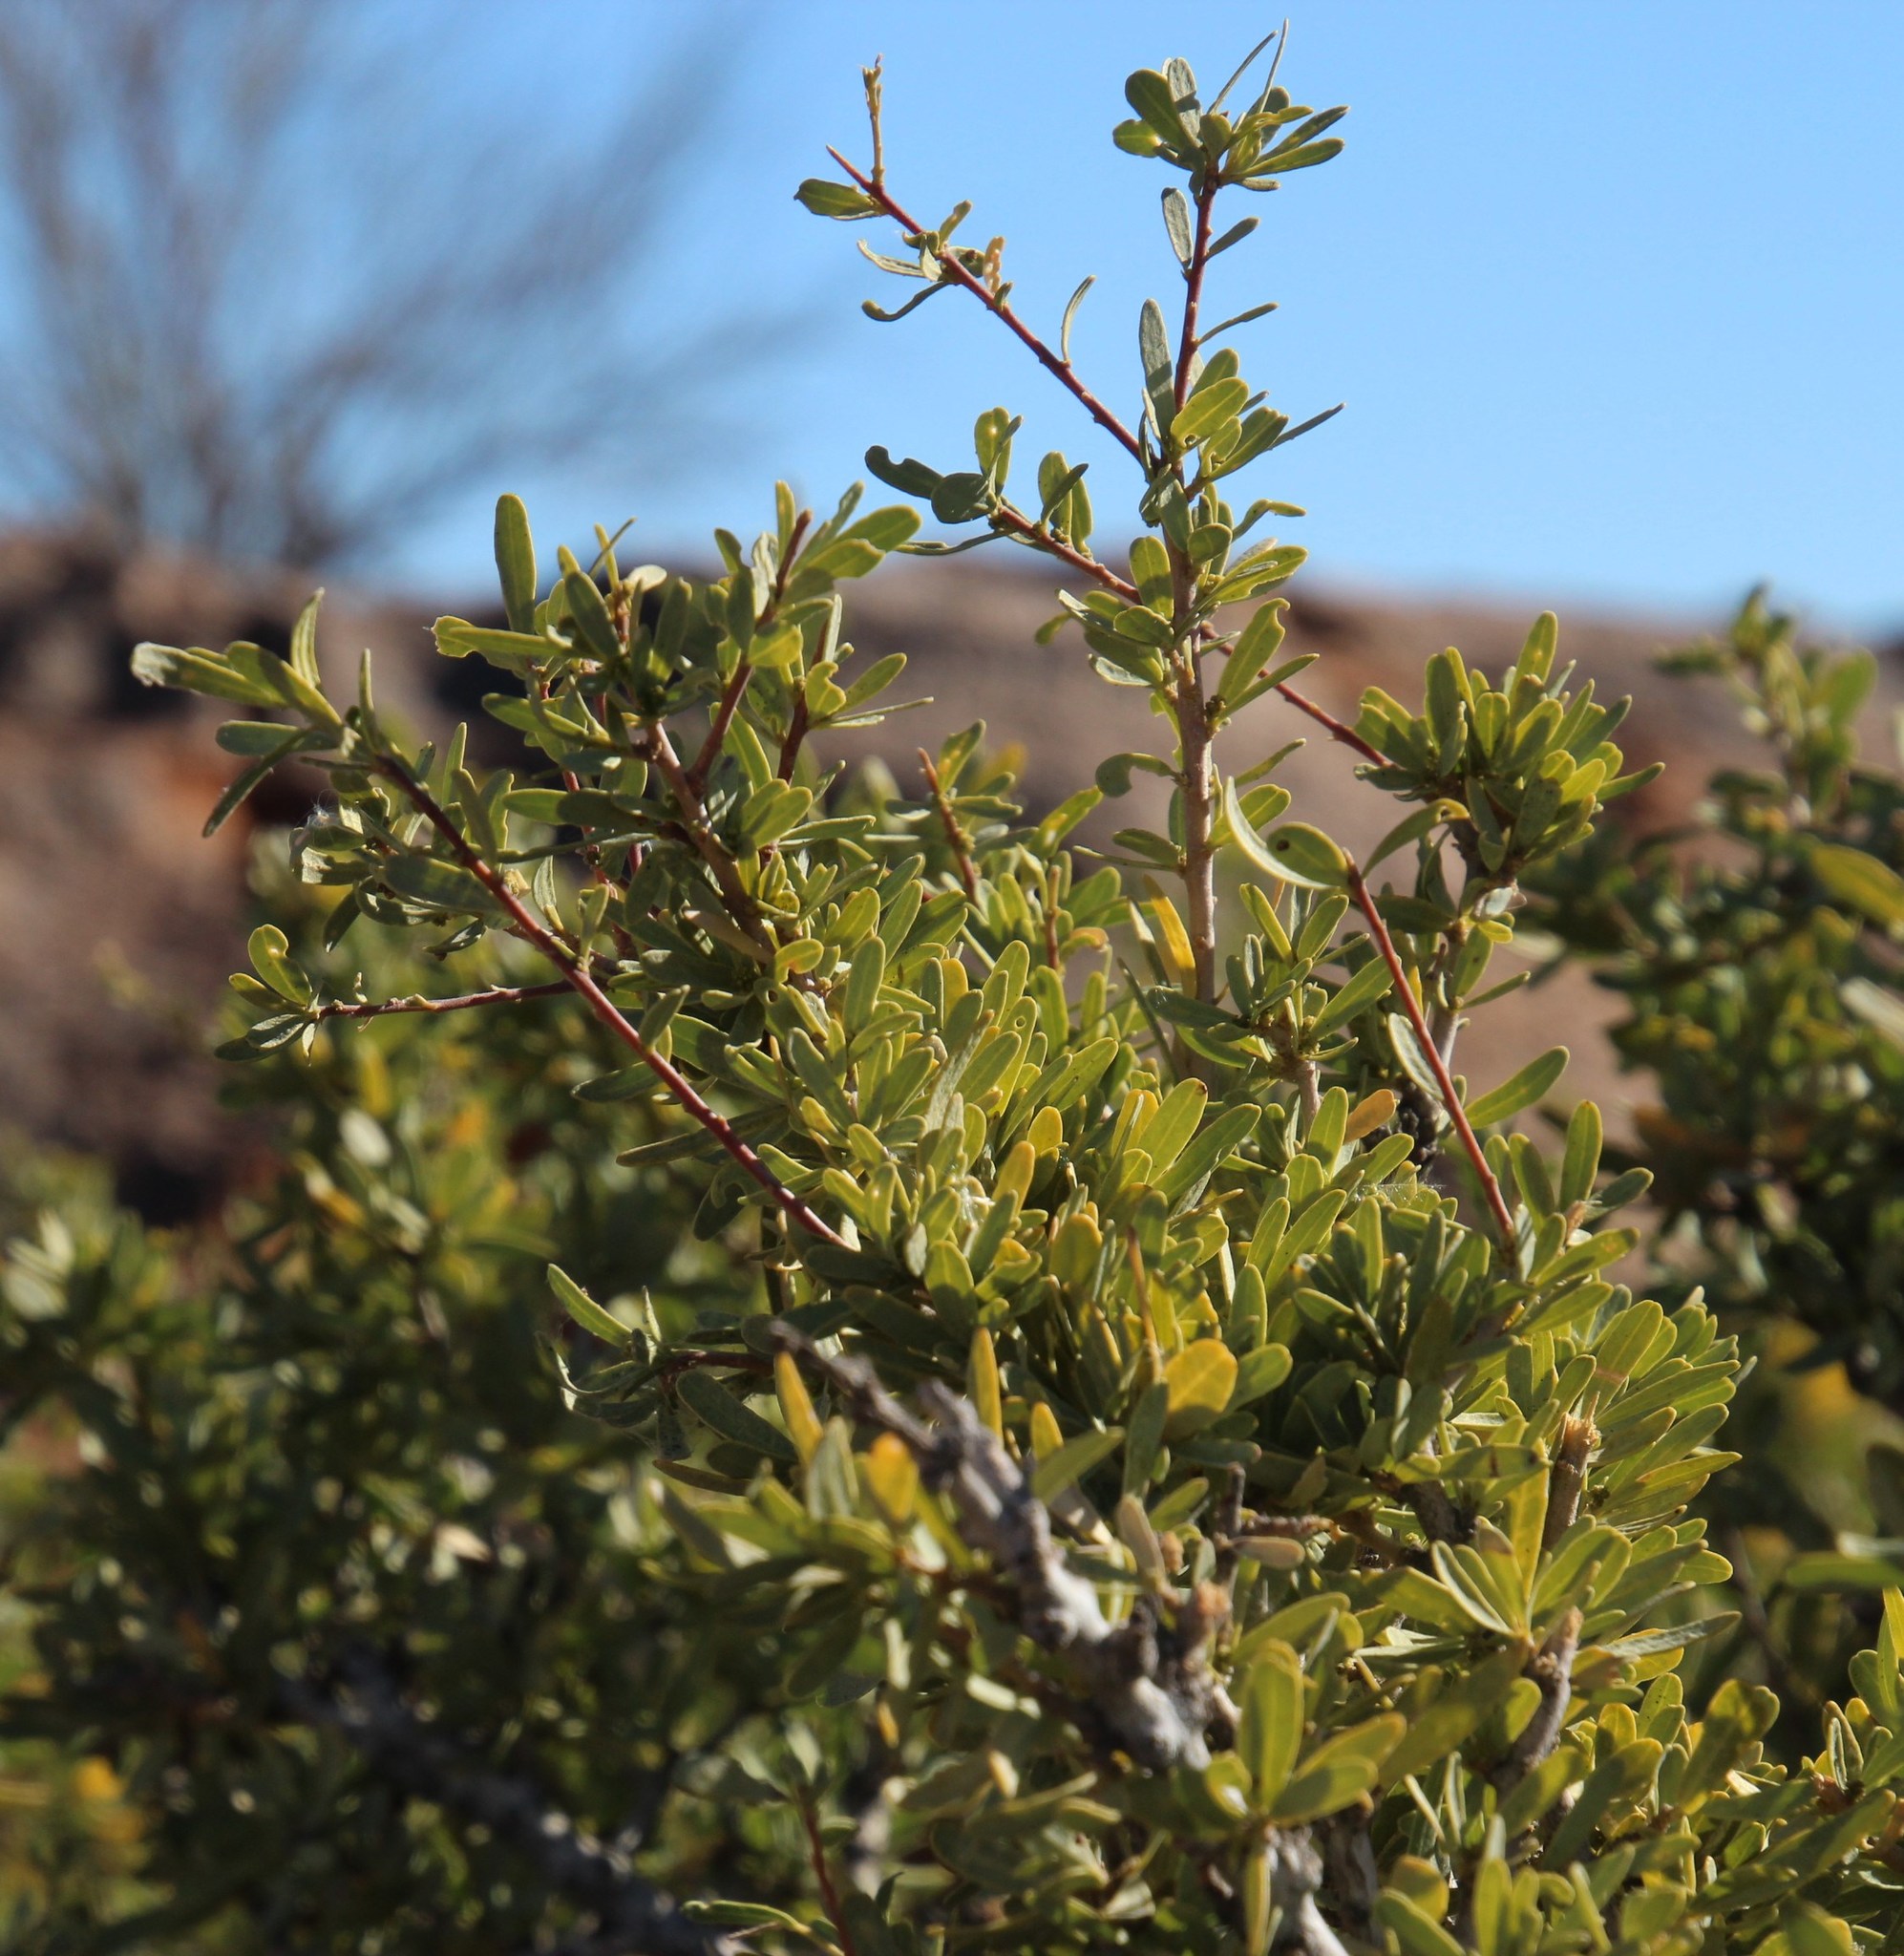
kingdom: Plantae
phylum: Tracheophyta
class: Magnoliopsida
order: Brassicales
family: Capparaceae
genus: Boscia
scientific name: Boscia albitrunca
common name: Caper bush
